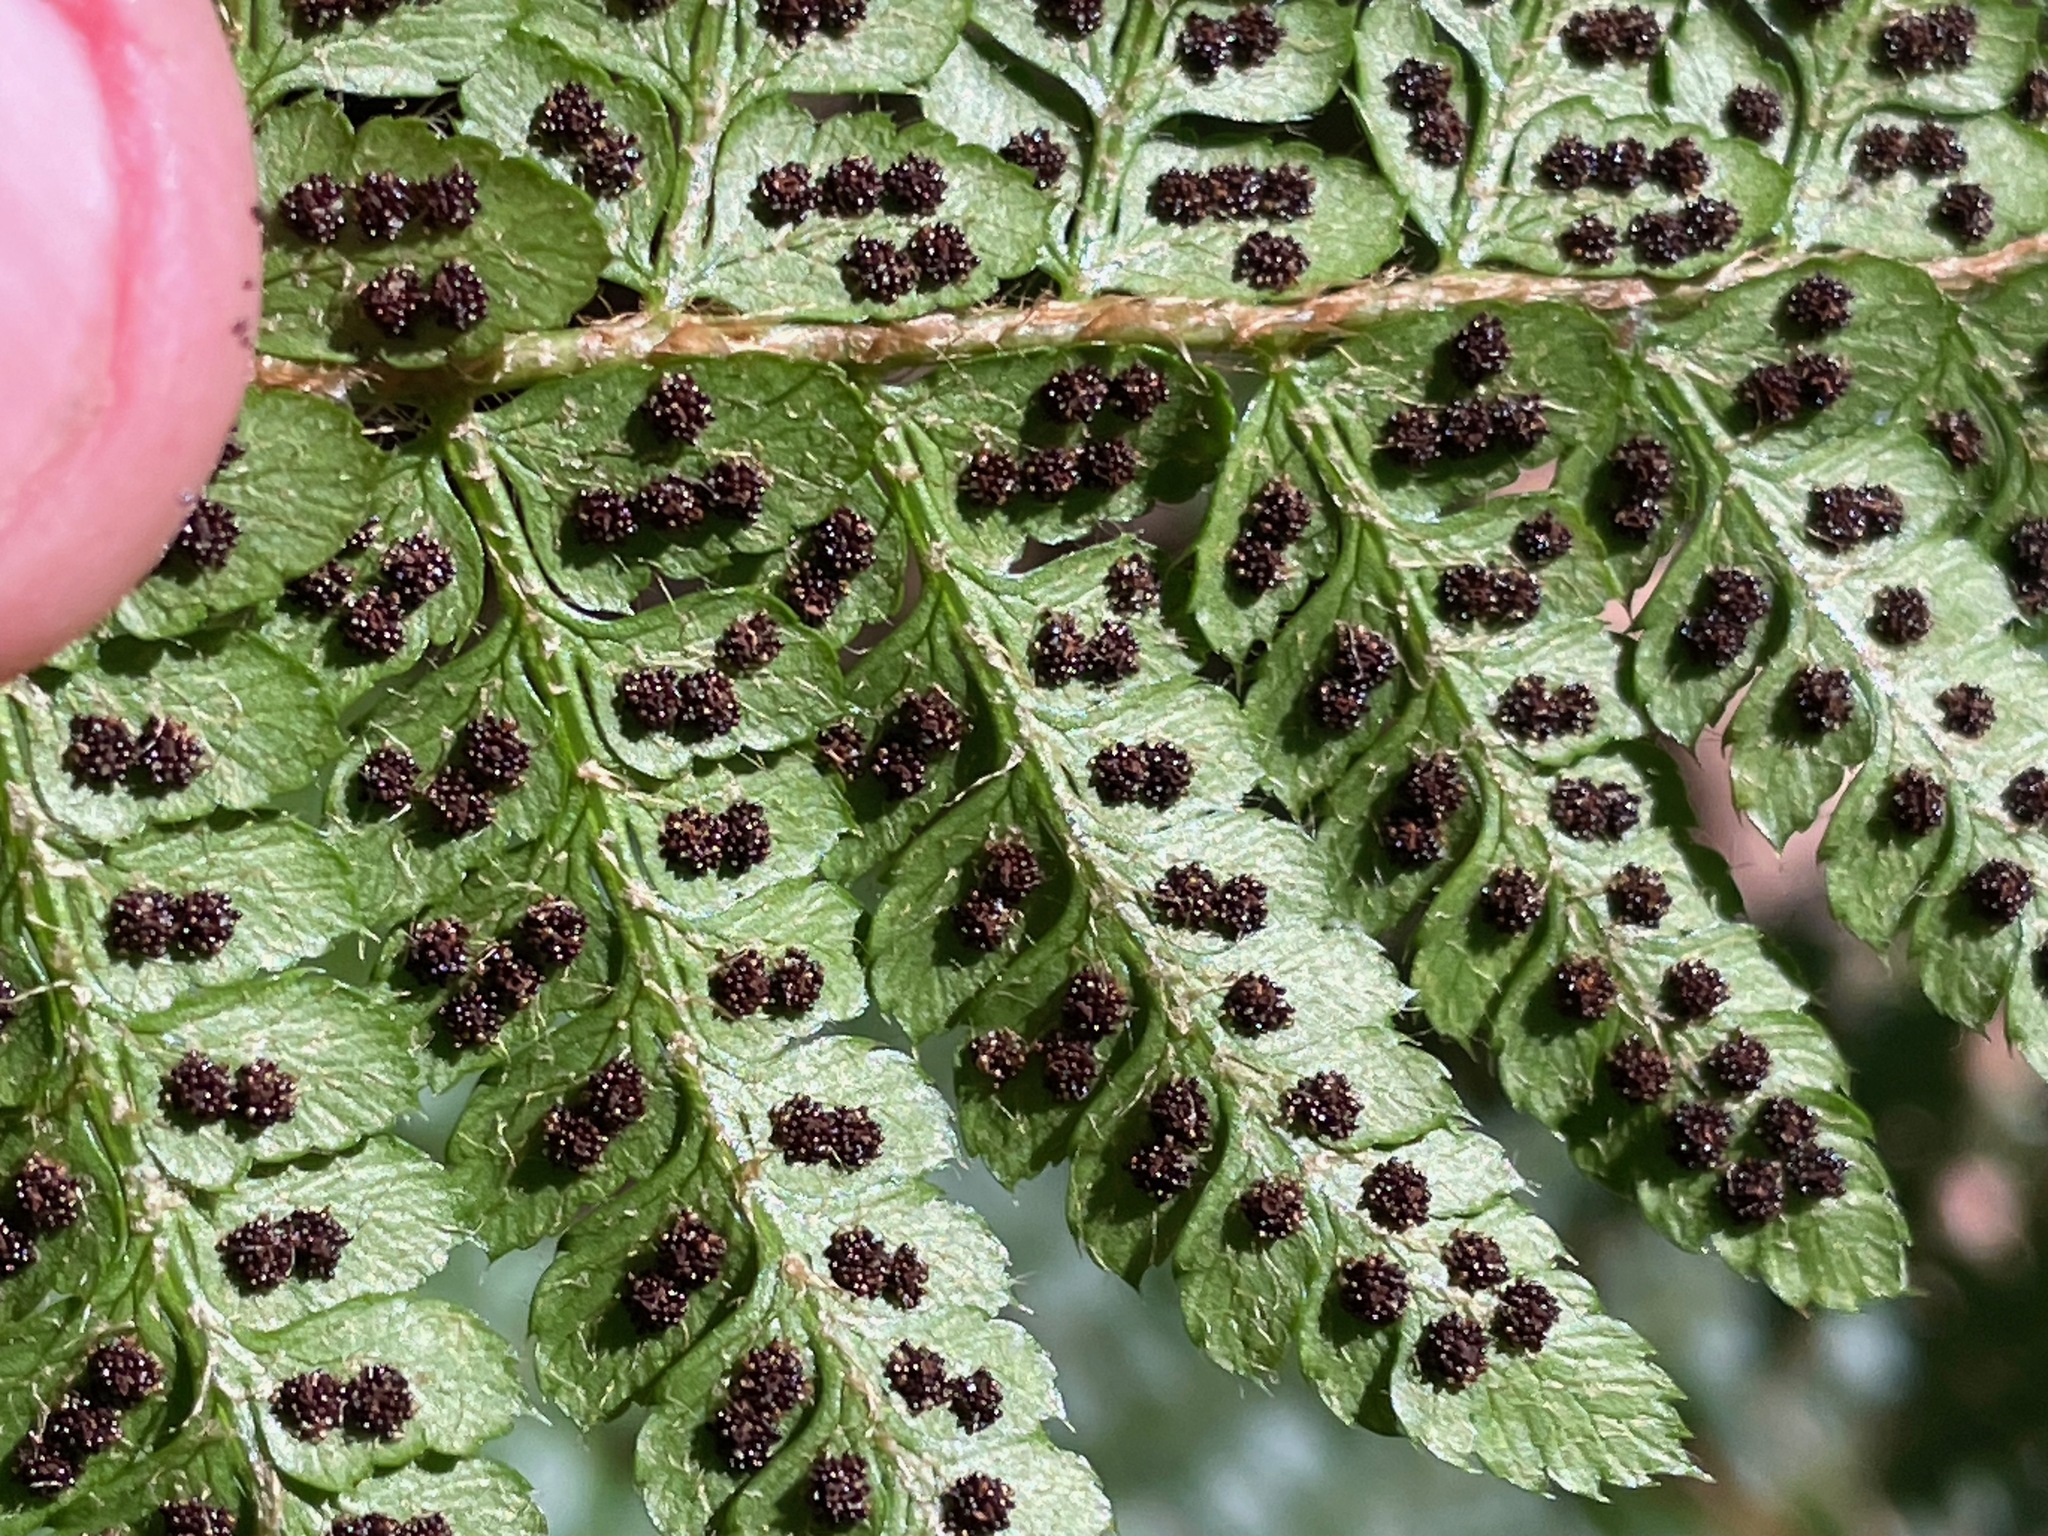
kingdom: Plantae
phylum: Tracheophyta
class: Polypodiopsida
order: Polypodiales
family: Dryopteridaceae
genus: Polystichum
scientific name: Polystichum braunii
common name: Braun's holly fern
